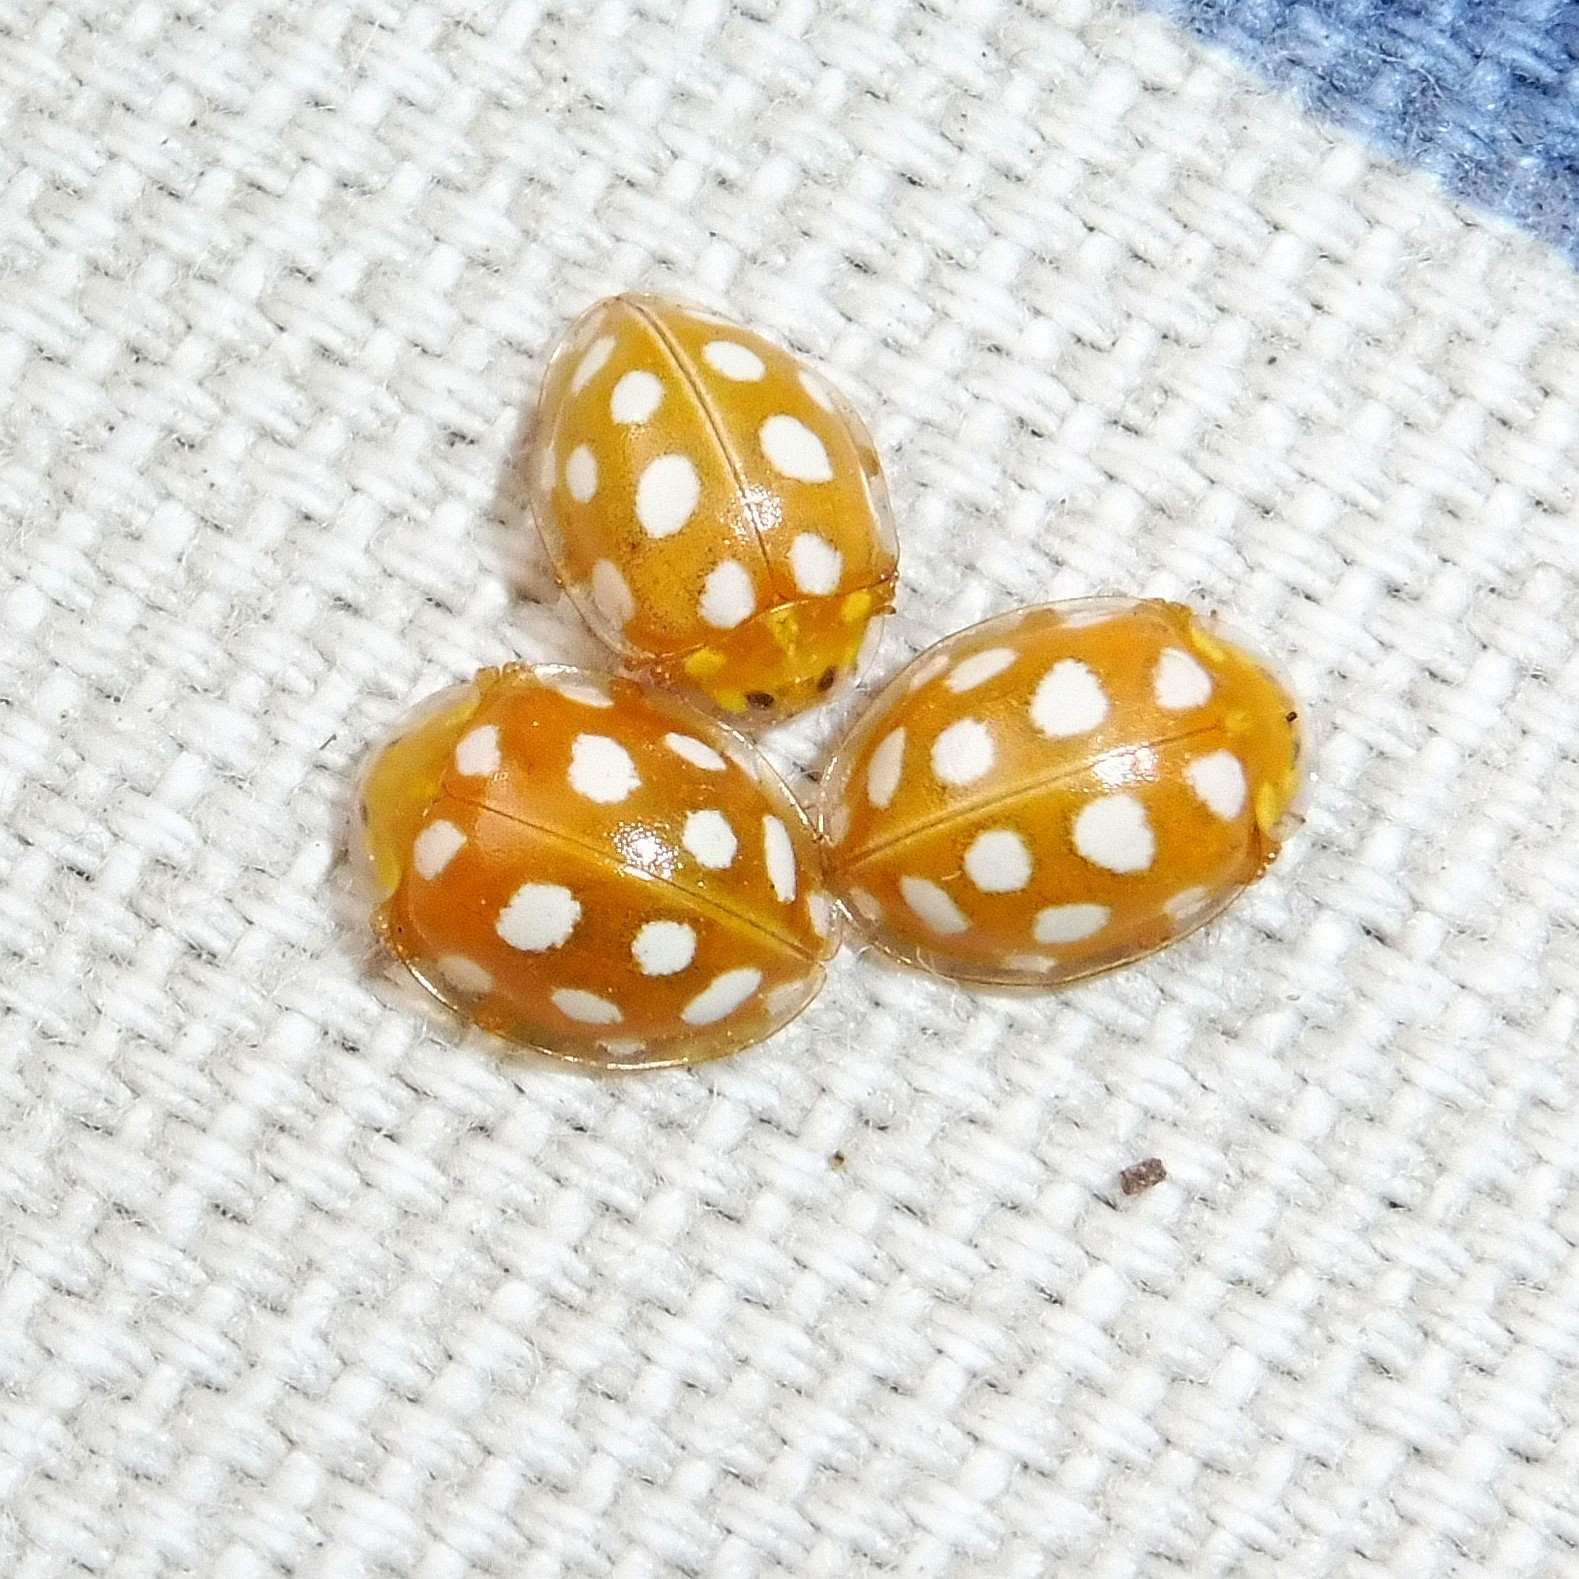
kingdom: Animalia
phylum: Arthropoda
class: Insecta
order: Coleoptera
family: Coccinellidae
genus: Halyzia
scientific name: Halyzia sedecimguttata
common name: Orange ladybird
